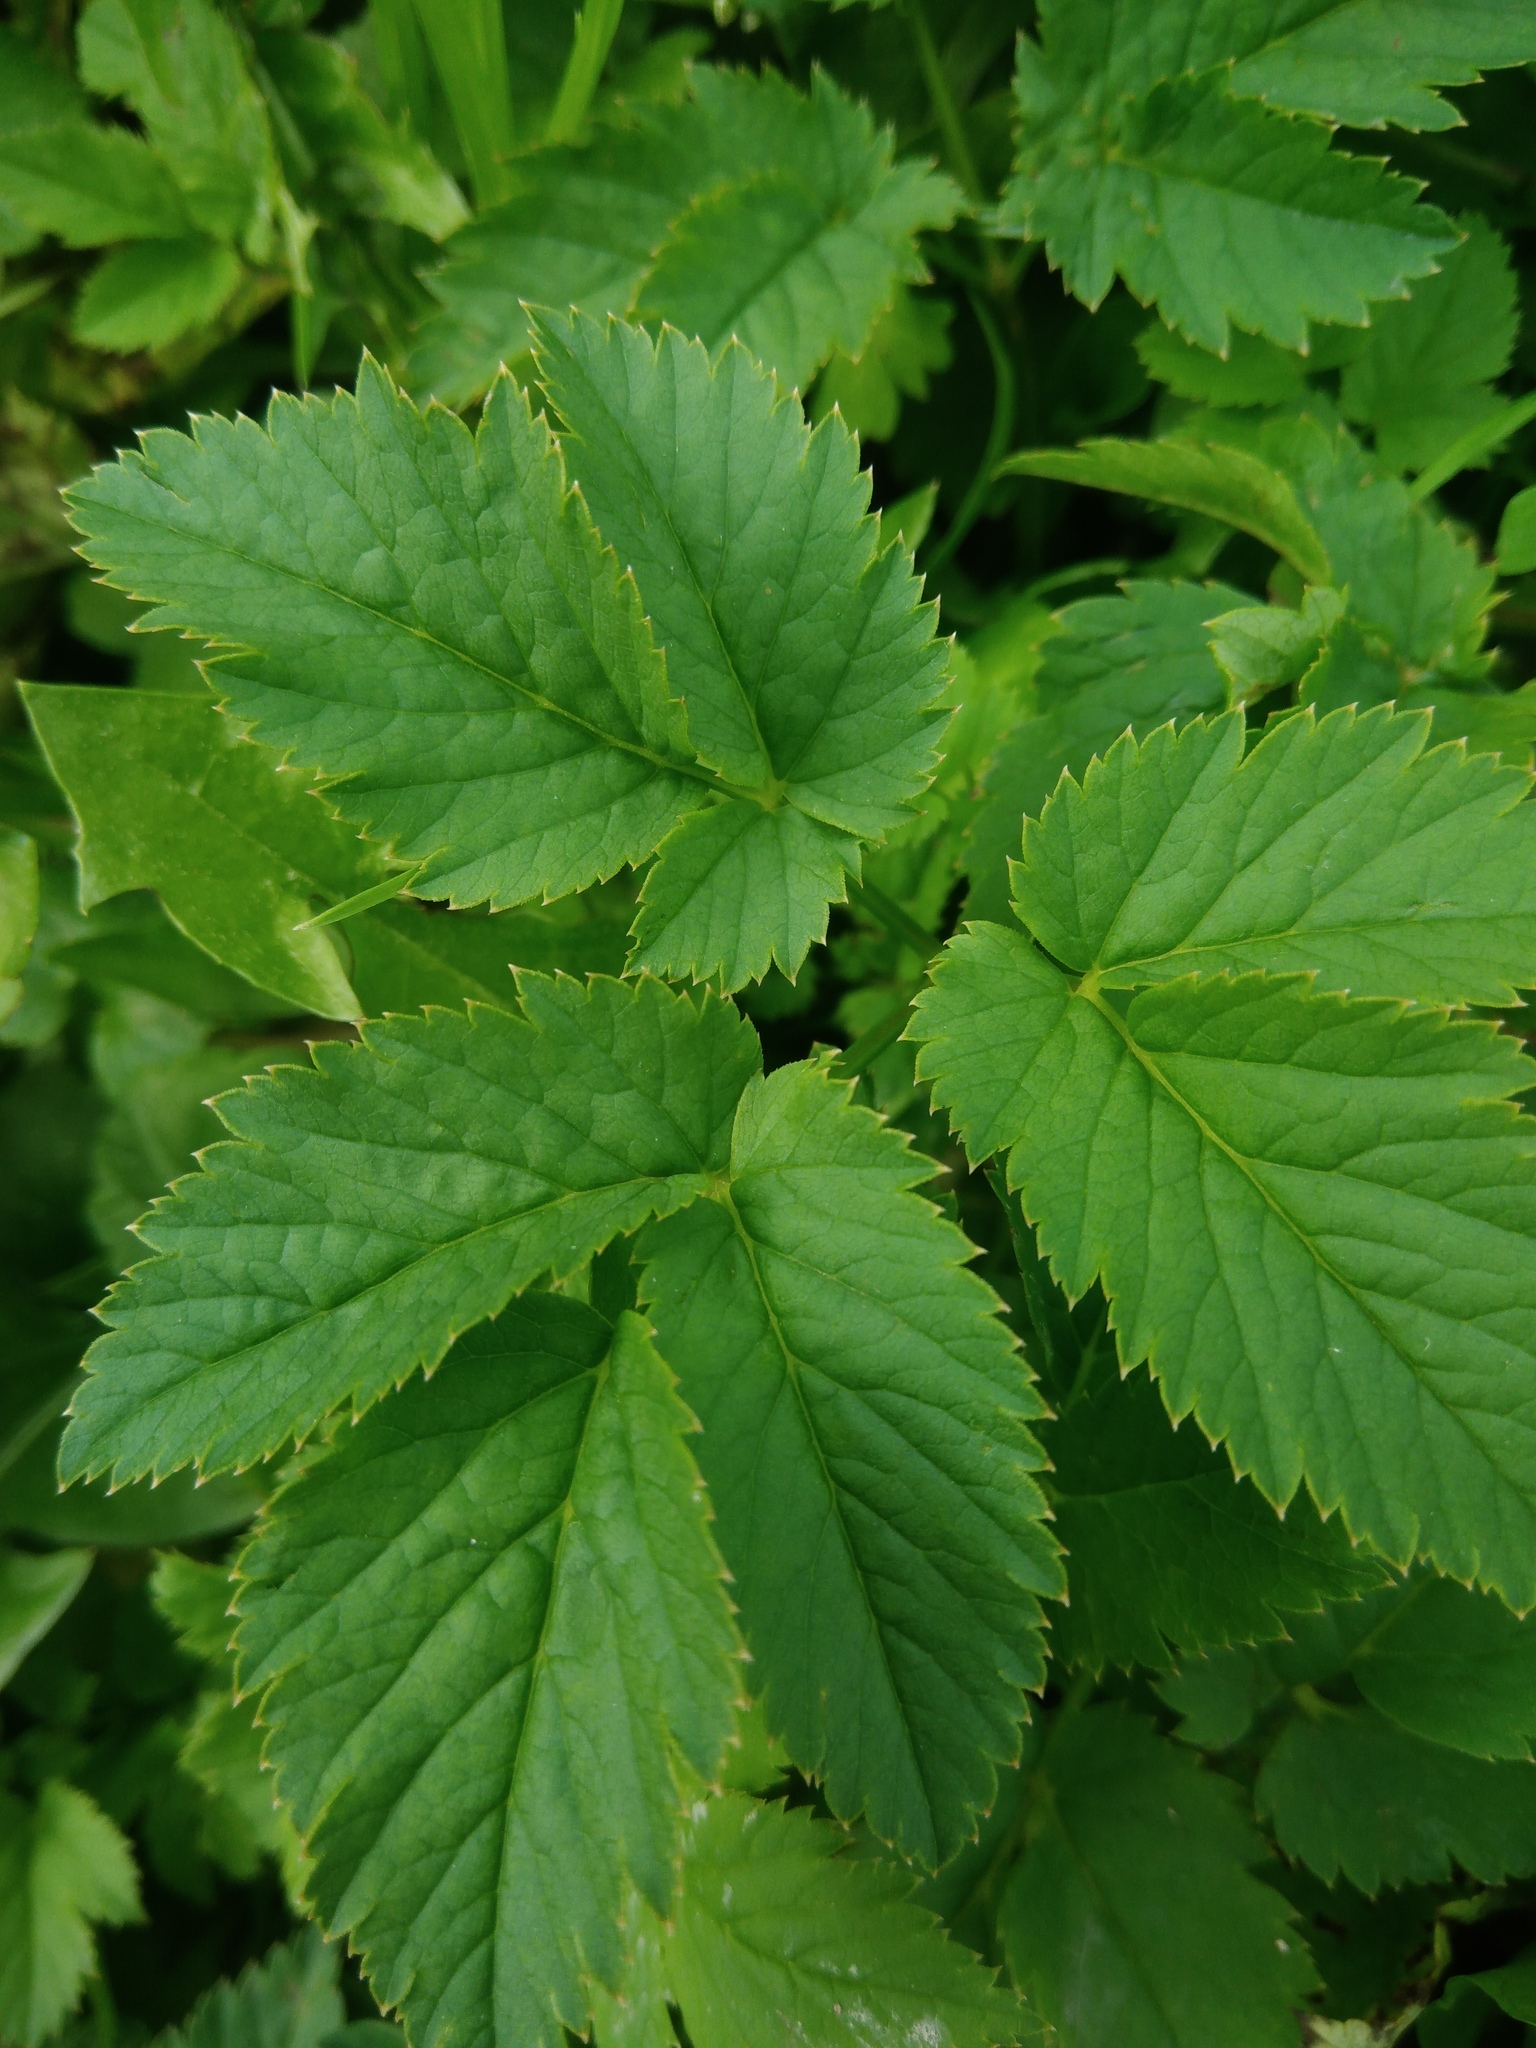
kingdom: Plantae
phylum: Tracheophyta
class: Magnoliopsida
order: Apiales
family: Apiaceae
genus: Aegopodium
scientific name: Aegopodium podagraria
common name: Ground-elder
